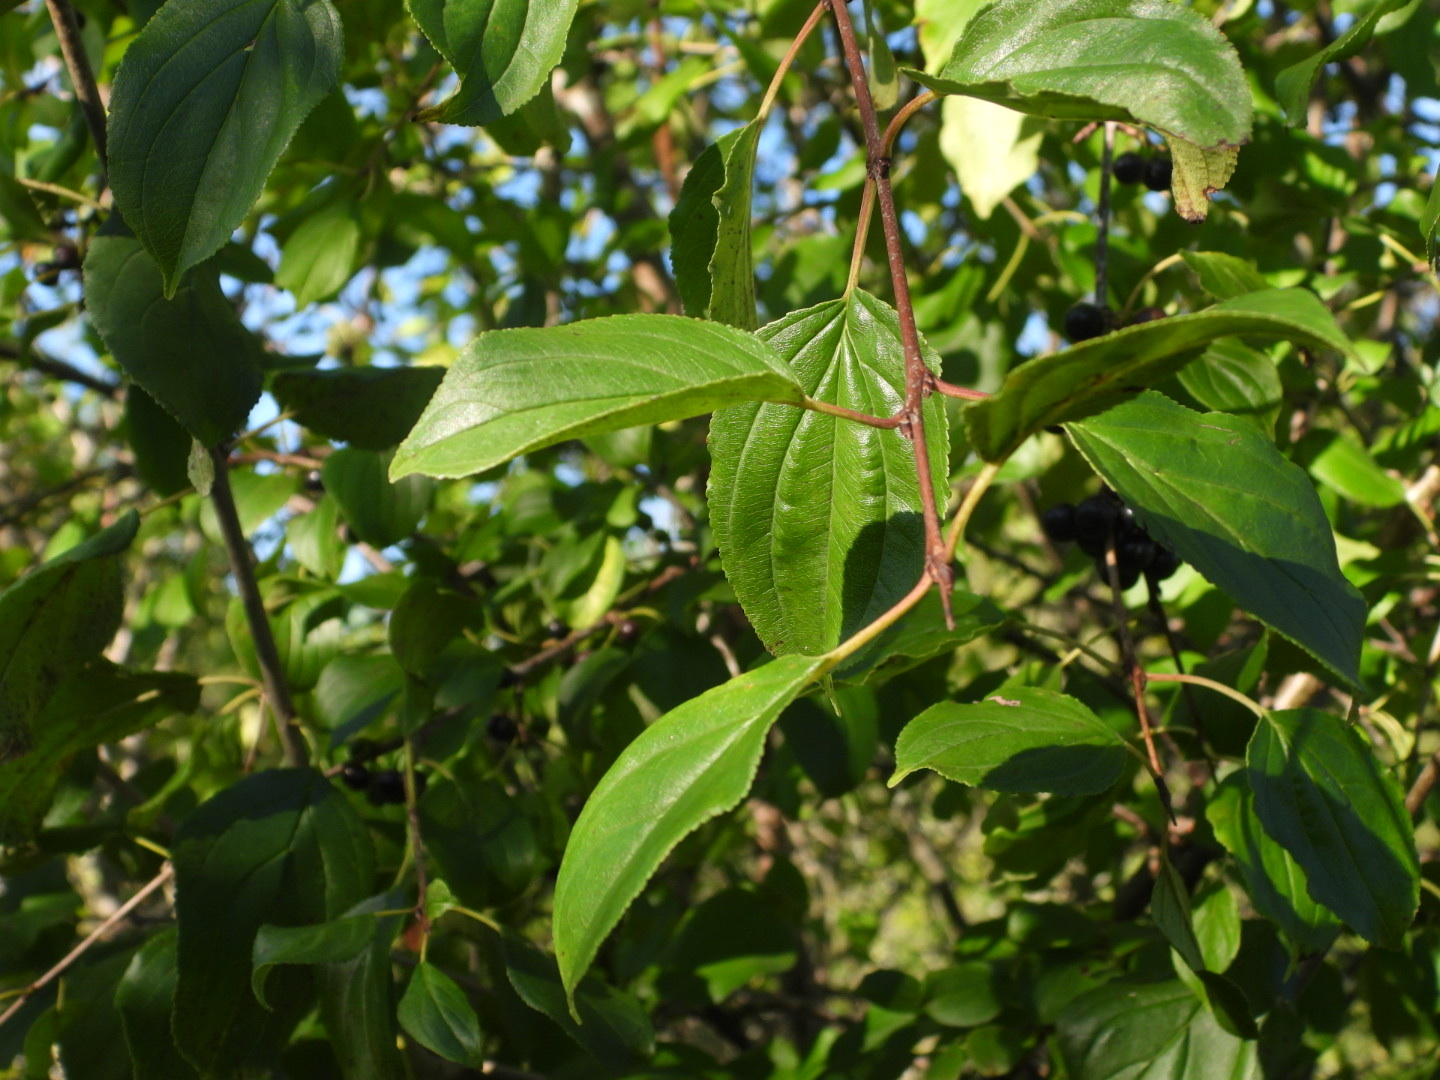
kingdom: Plantae
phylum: Tracheophyta
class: Magnoliopsida
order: Rosales
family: Rhamnaceae
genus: Rhamnus
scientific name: Rhamnus cathartica
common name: Common buckthorn
